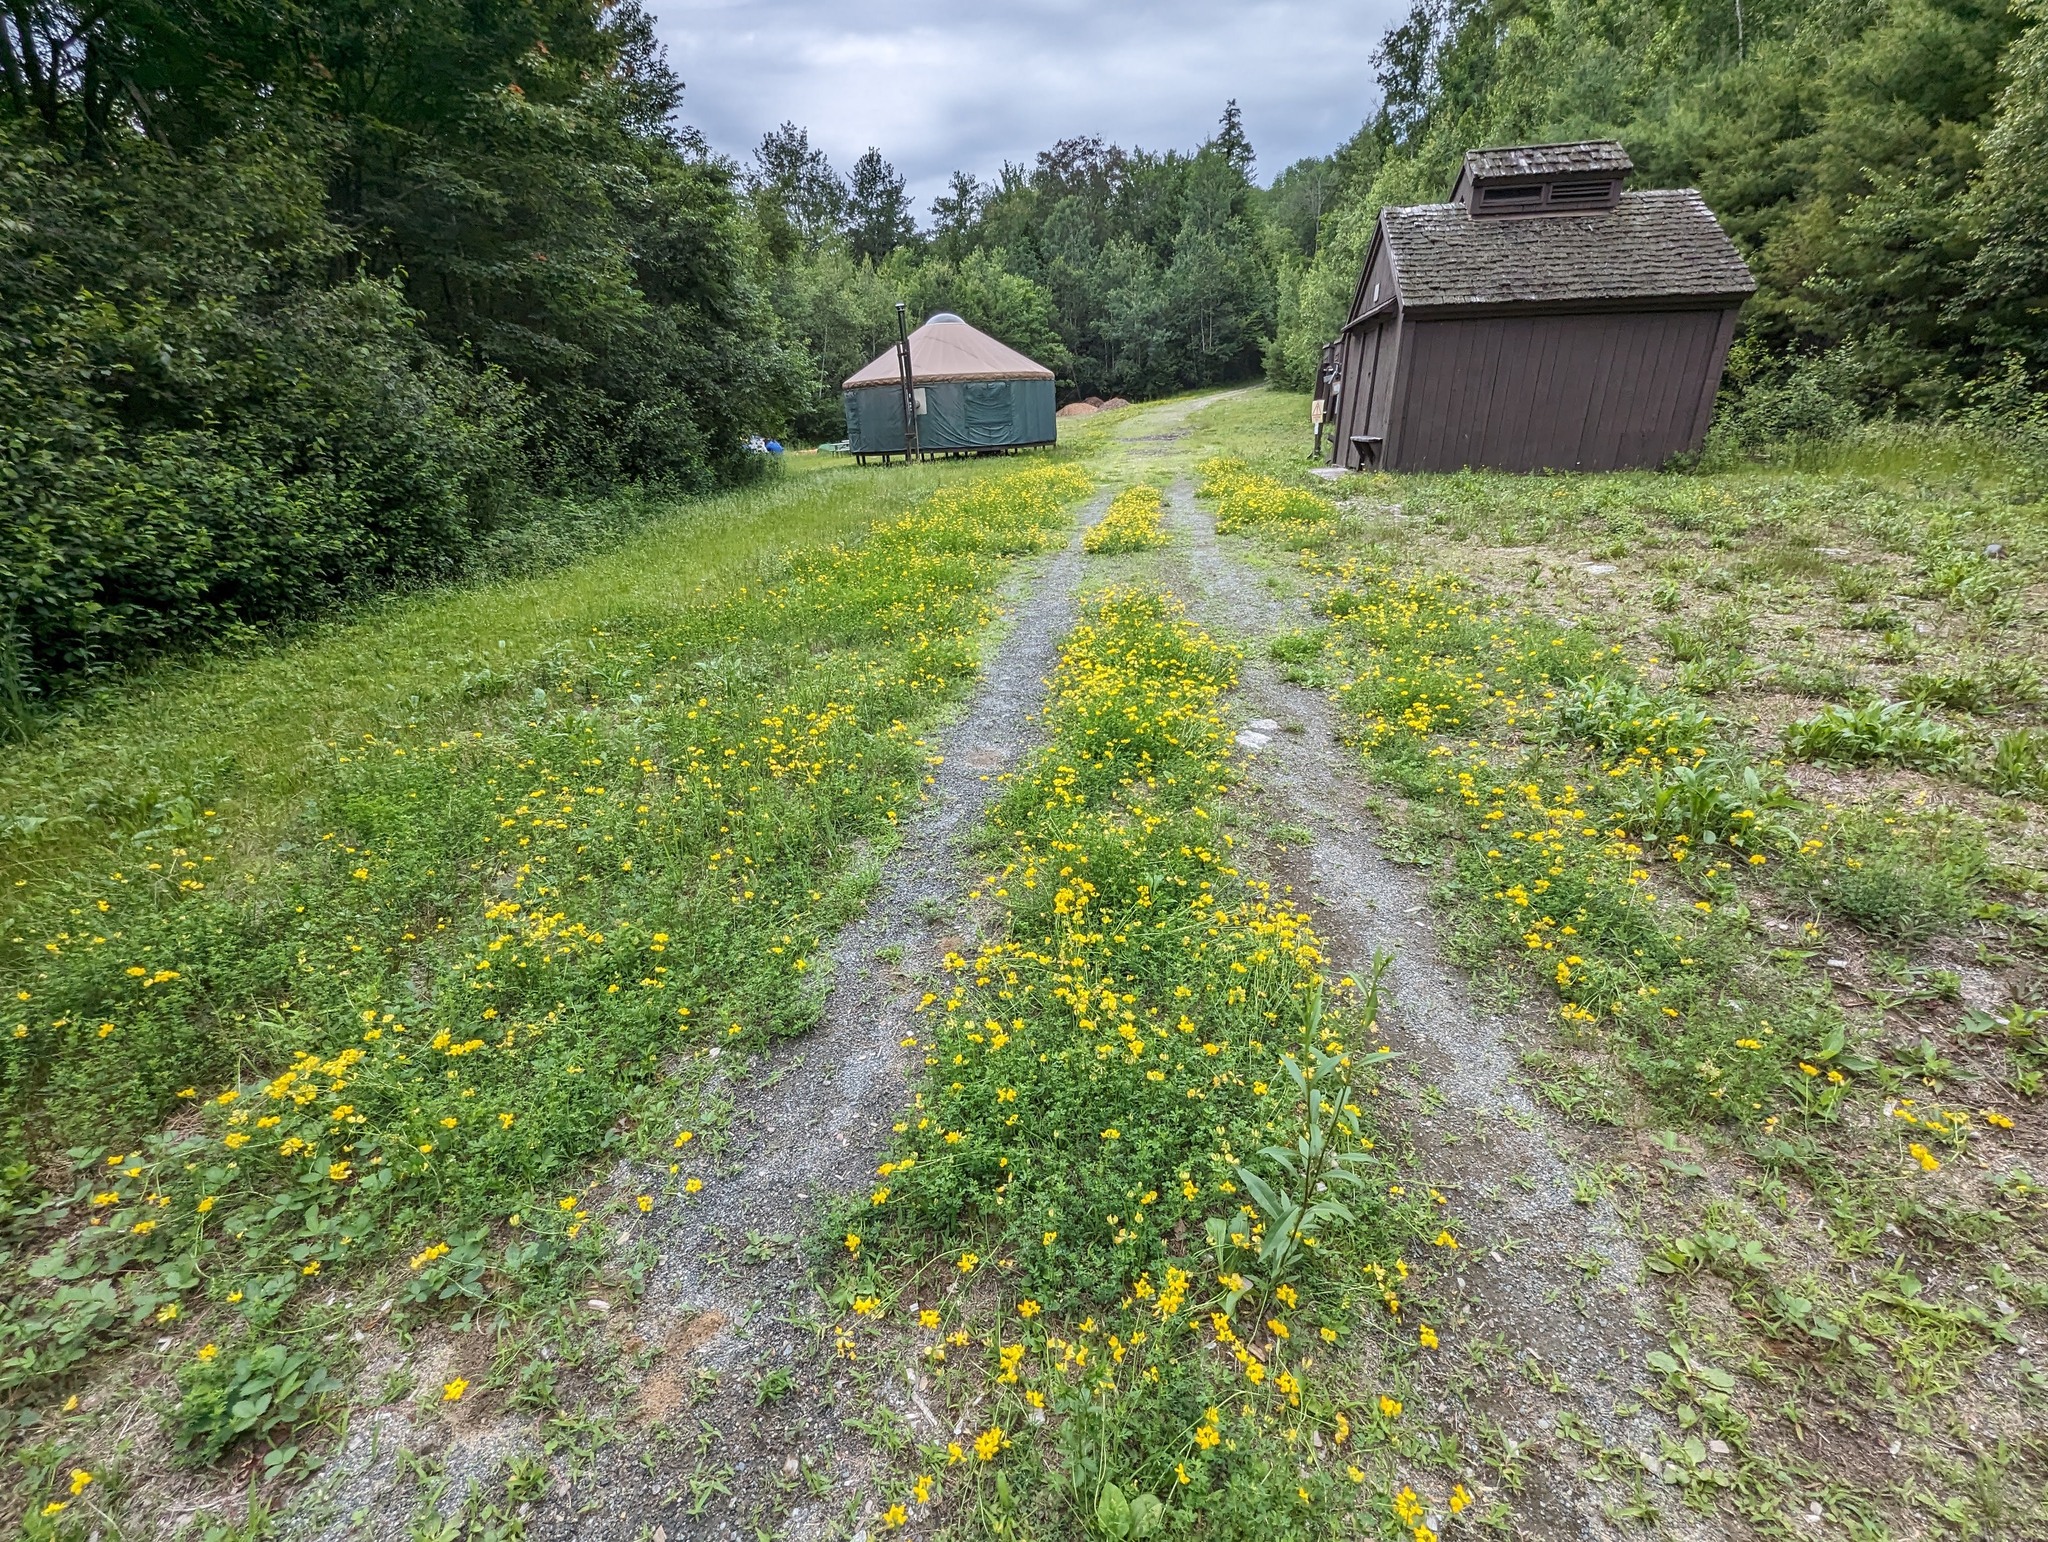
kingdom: Plantae
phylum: Tracheophyta
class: Magnoliopsida
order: Fabales
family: Fabaceae
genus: Lotus
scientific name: Lotus corniculatus
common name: Common bird's-foot-trefoil
